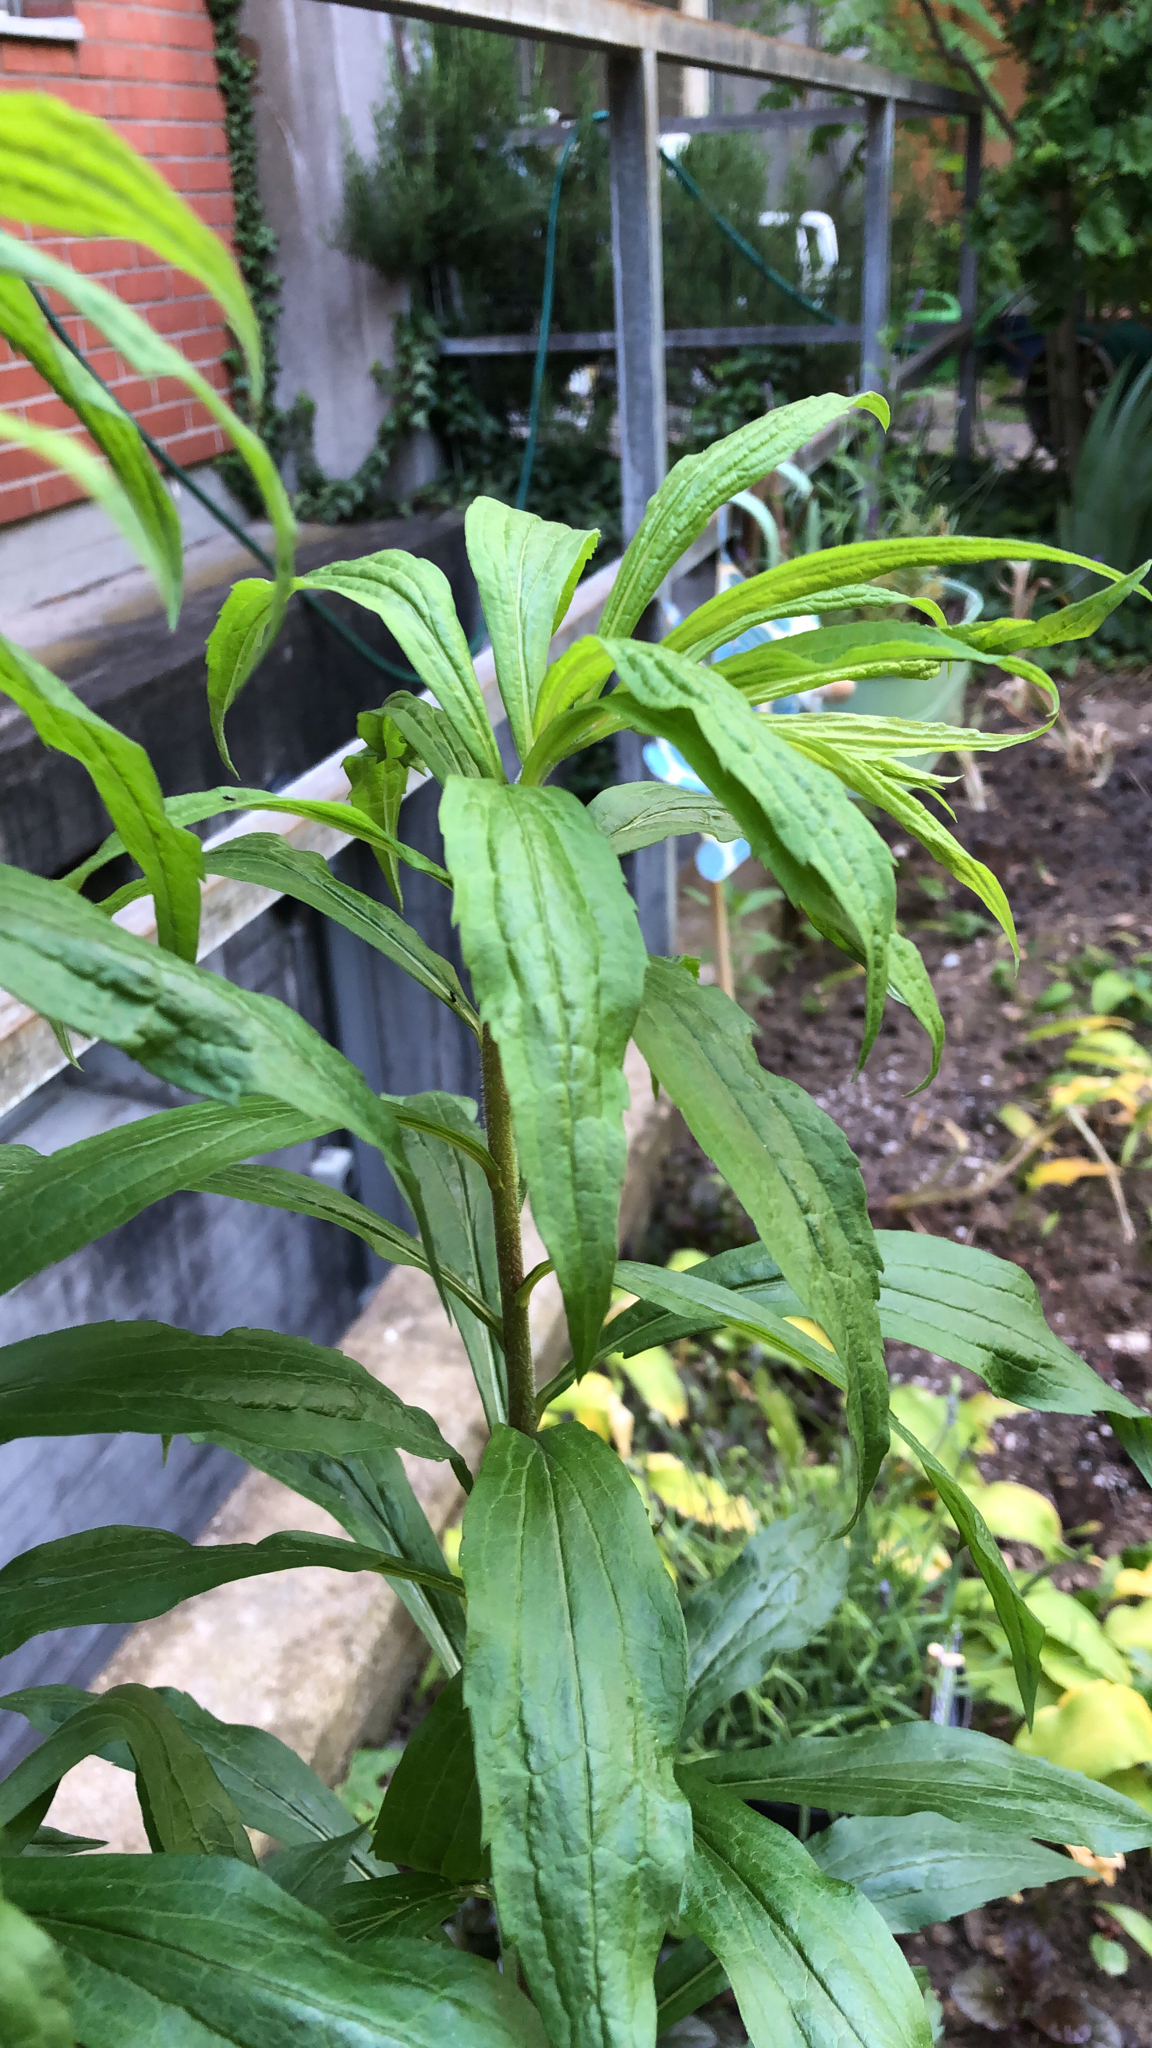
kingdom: Plantae
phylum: Tracheophyta
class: Magnoliopsida
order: Asterales
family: Asteraceae
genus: Solidago
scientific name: Solidago canadensis
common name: Canada goldenrod
